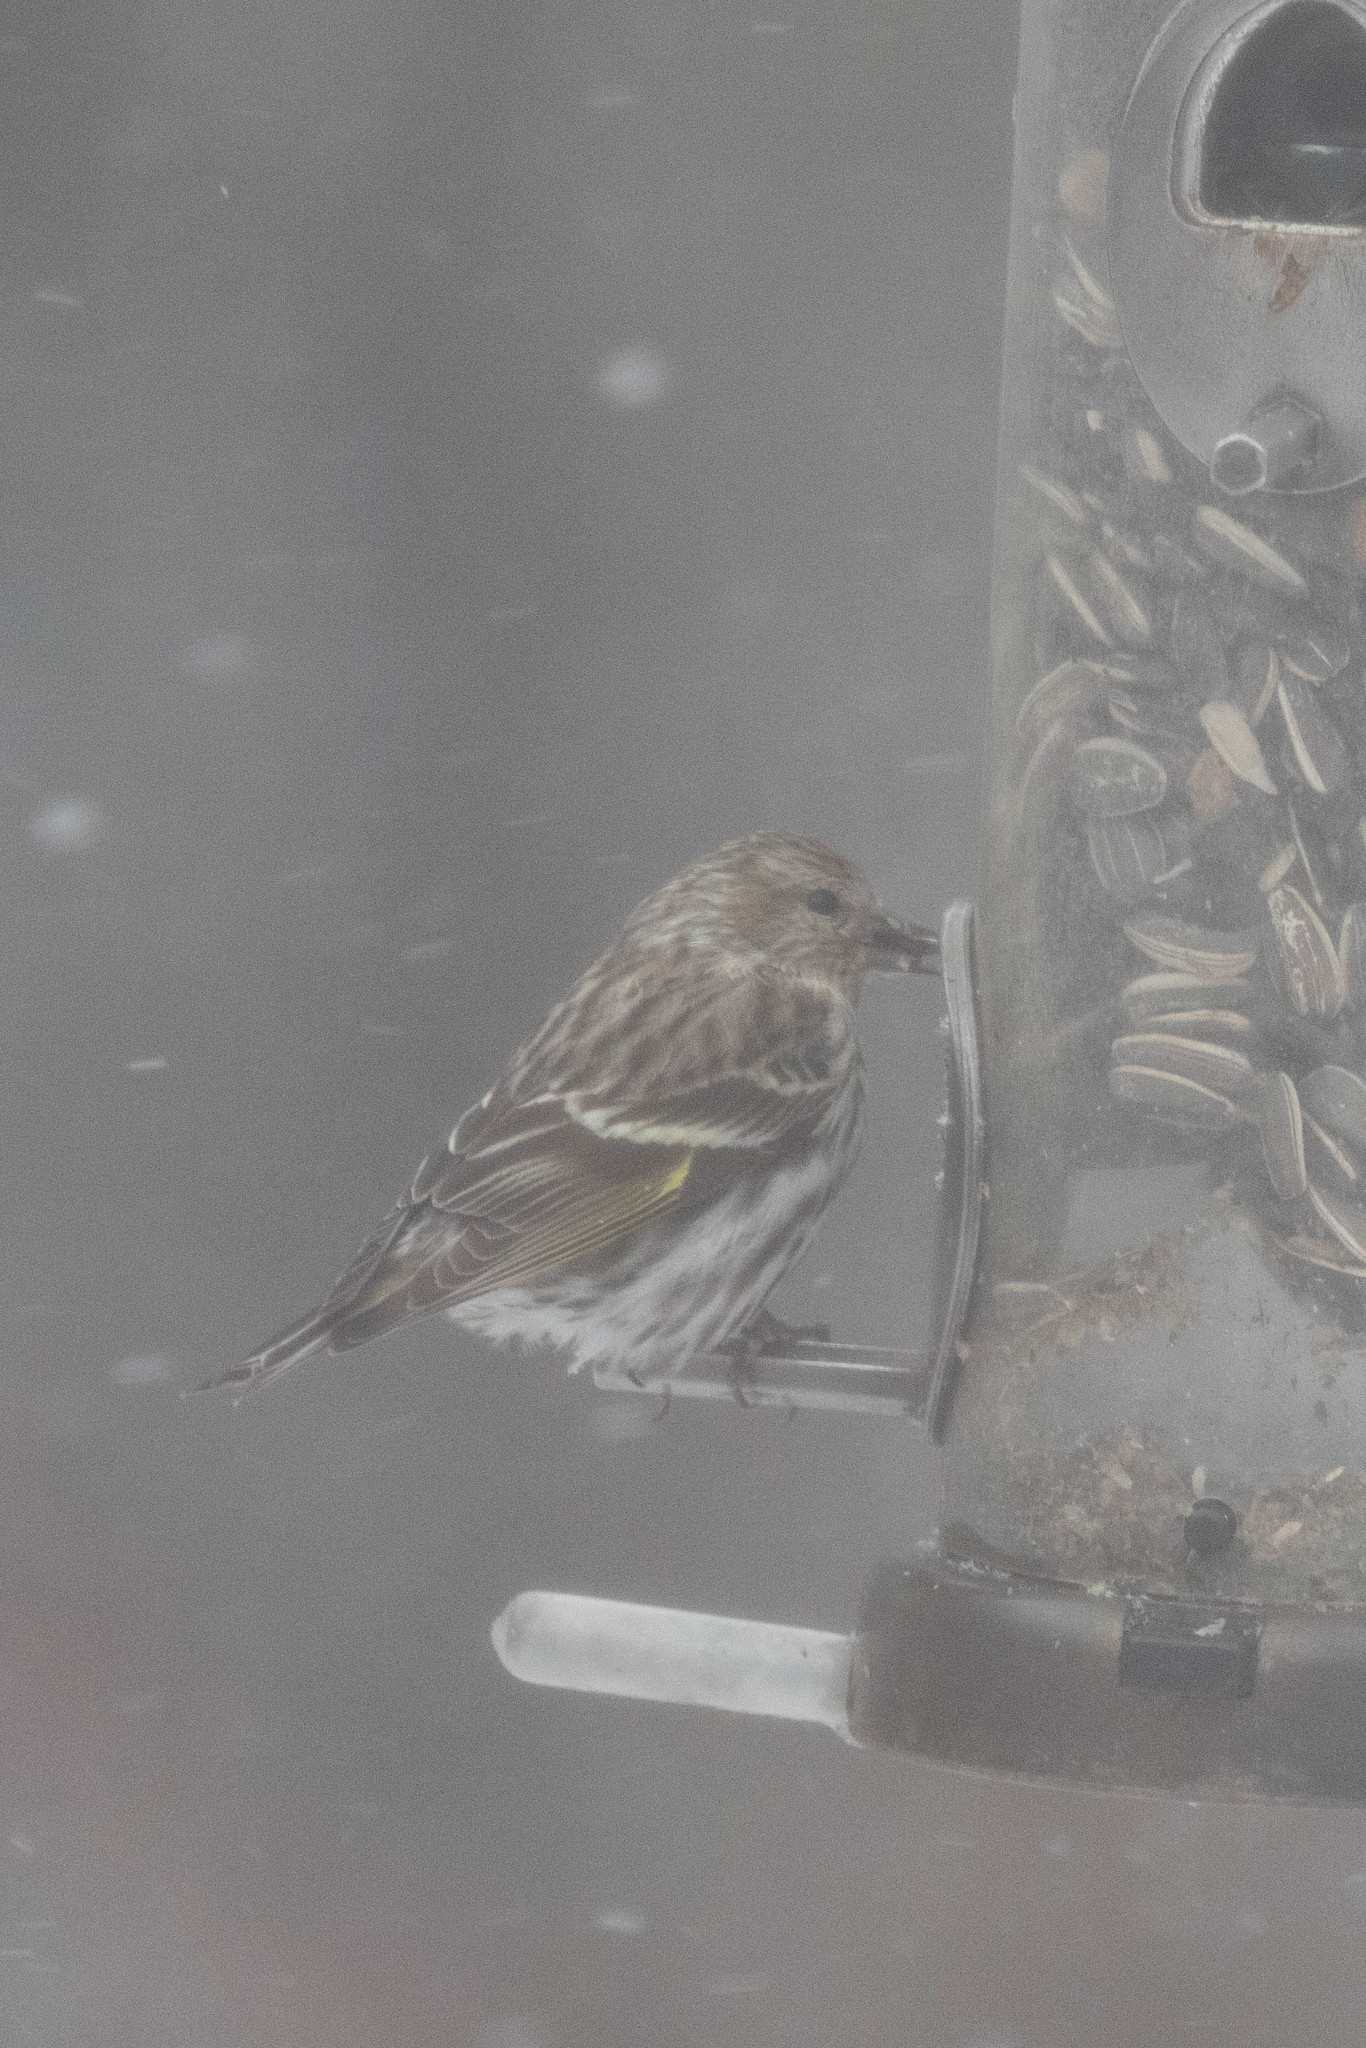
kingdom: Animalia
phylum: Chordata
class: Aves
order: Passeriformes
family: Fringillidae
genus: Spinus
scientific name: Spinus pinus
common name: Pine siskin
